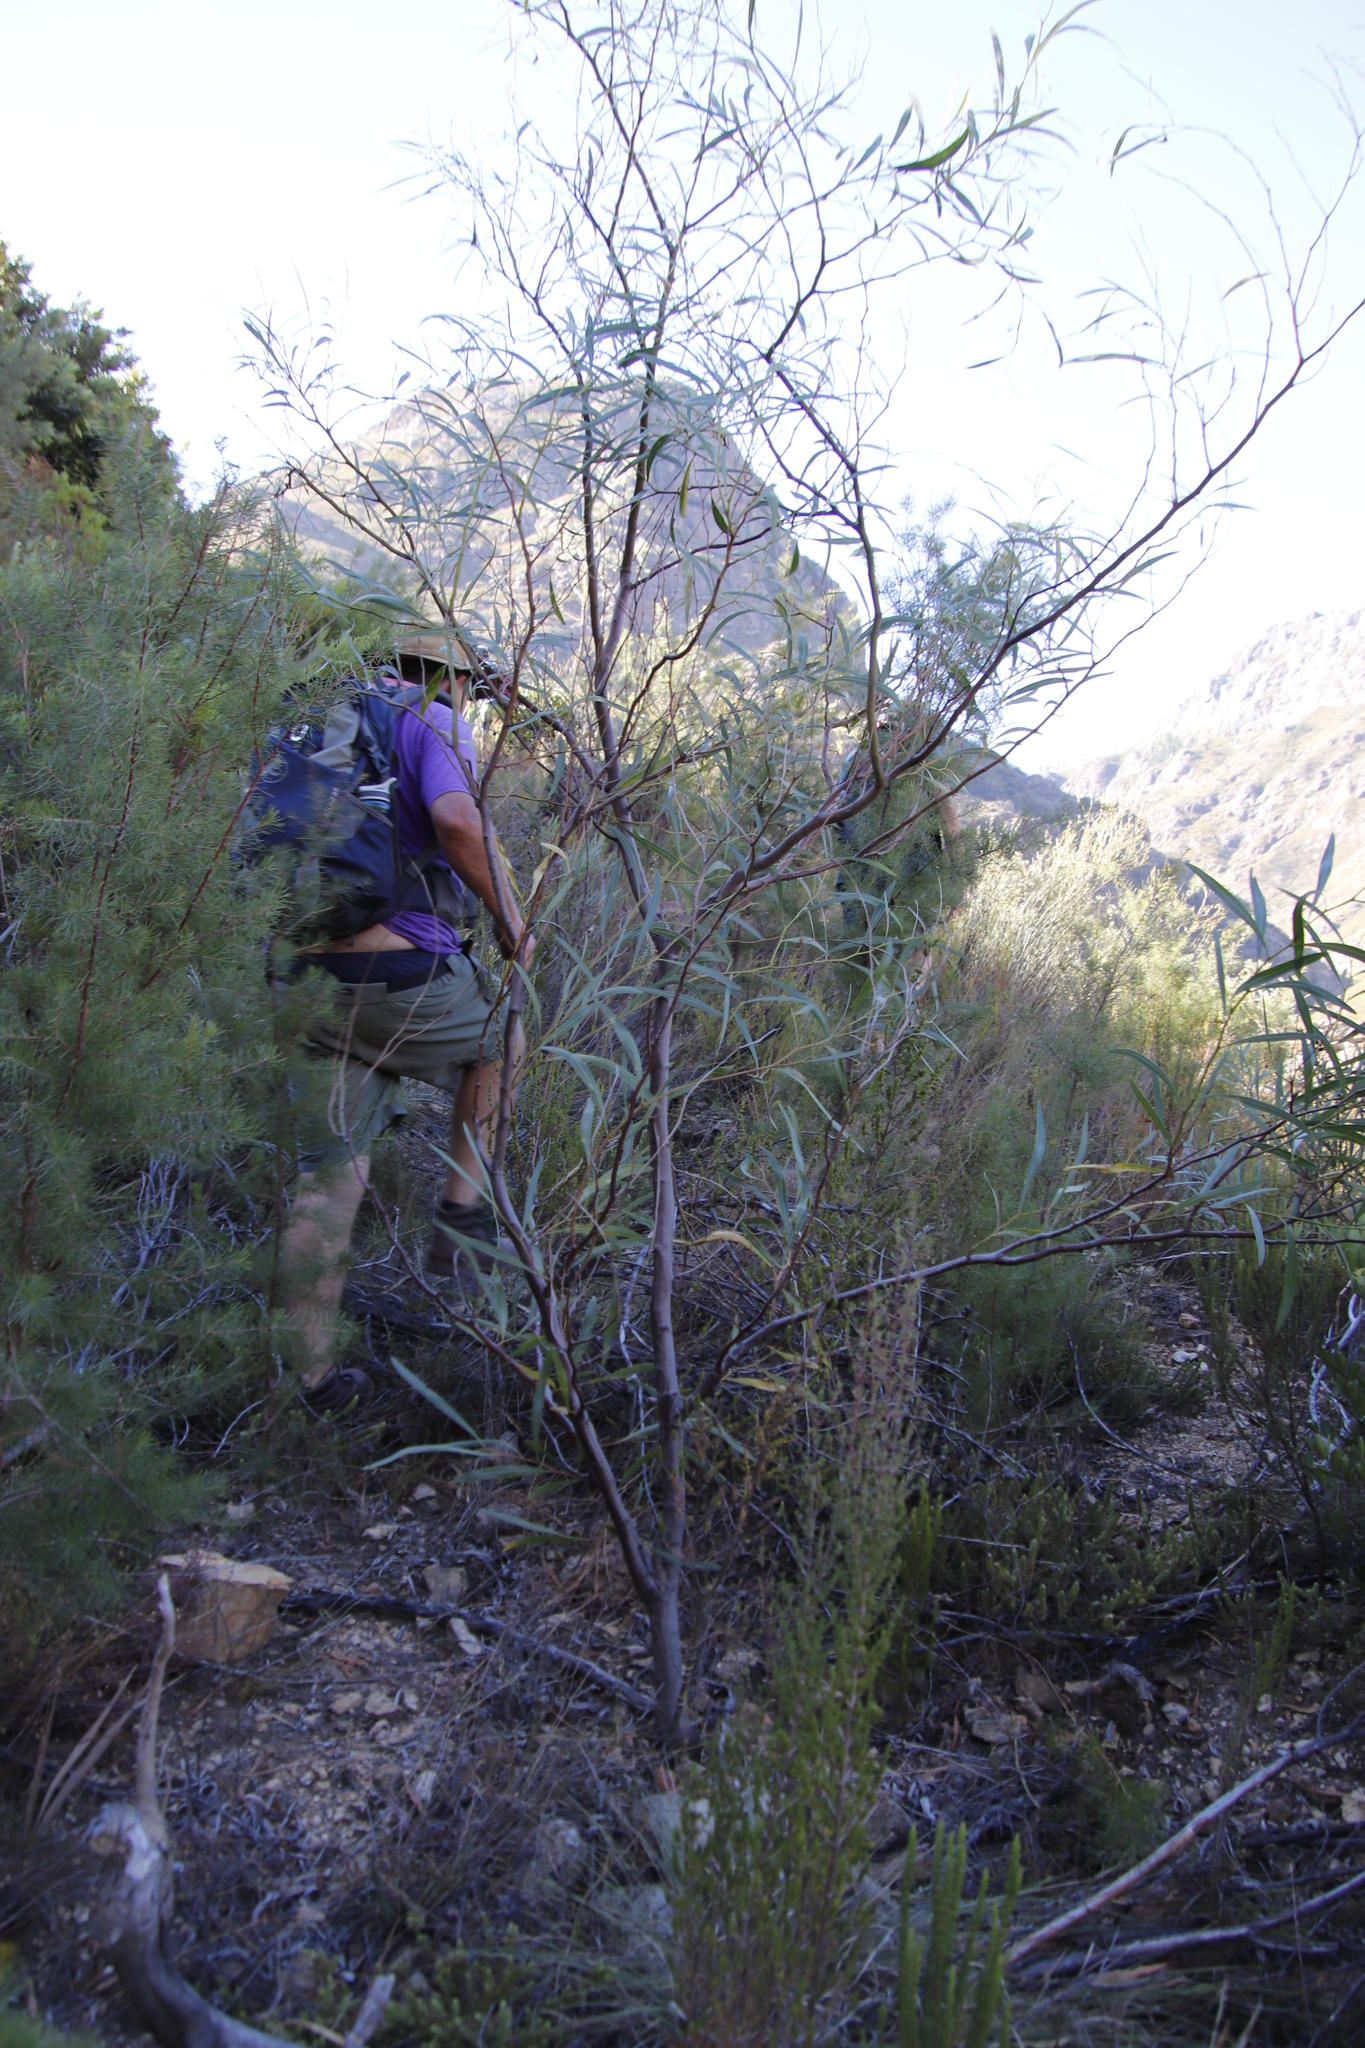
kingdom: Plantae
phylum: Tracheophyta
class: Magnoliopsida
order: Fabales
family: Fabaceae
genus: Acacia
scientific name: Acacia saligna
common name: Orange wattle
